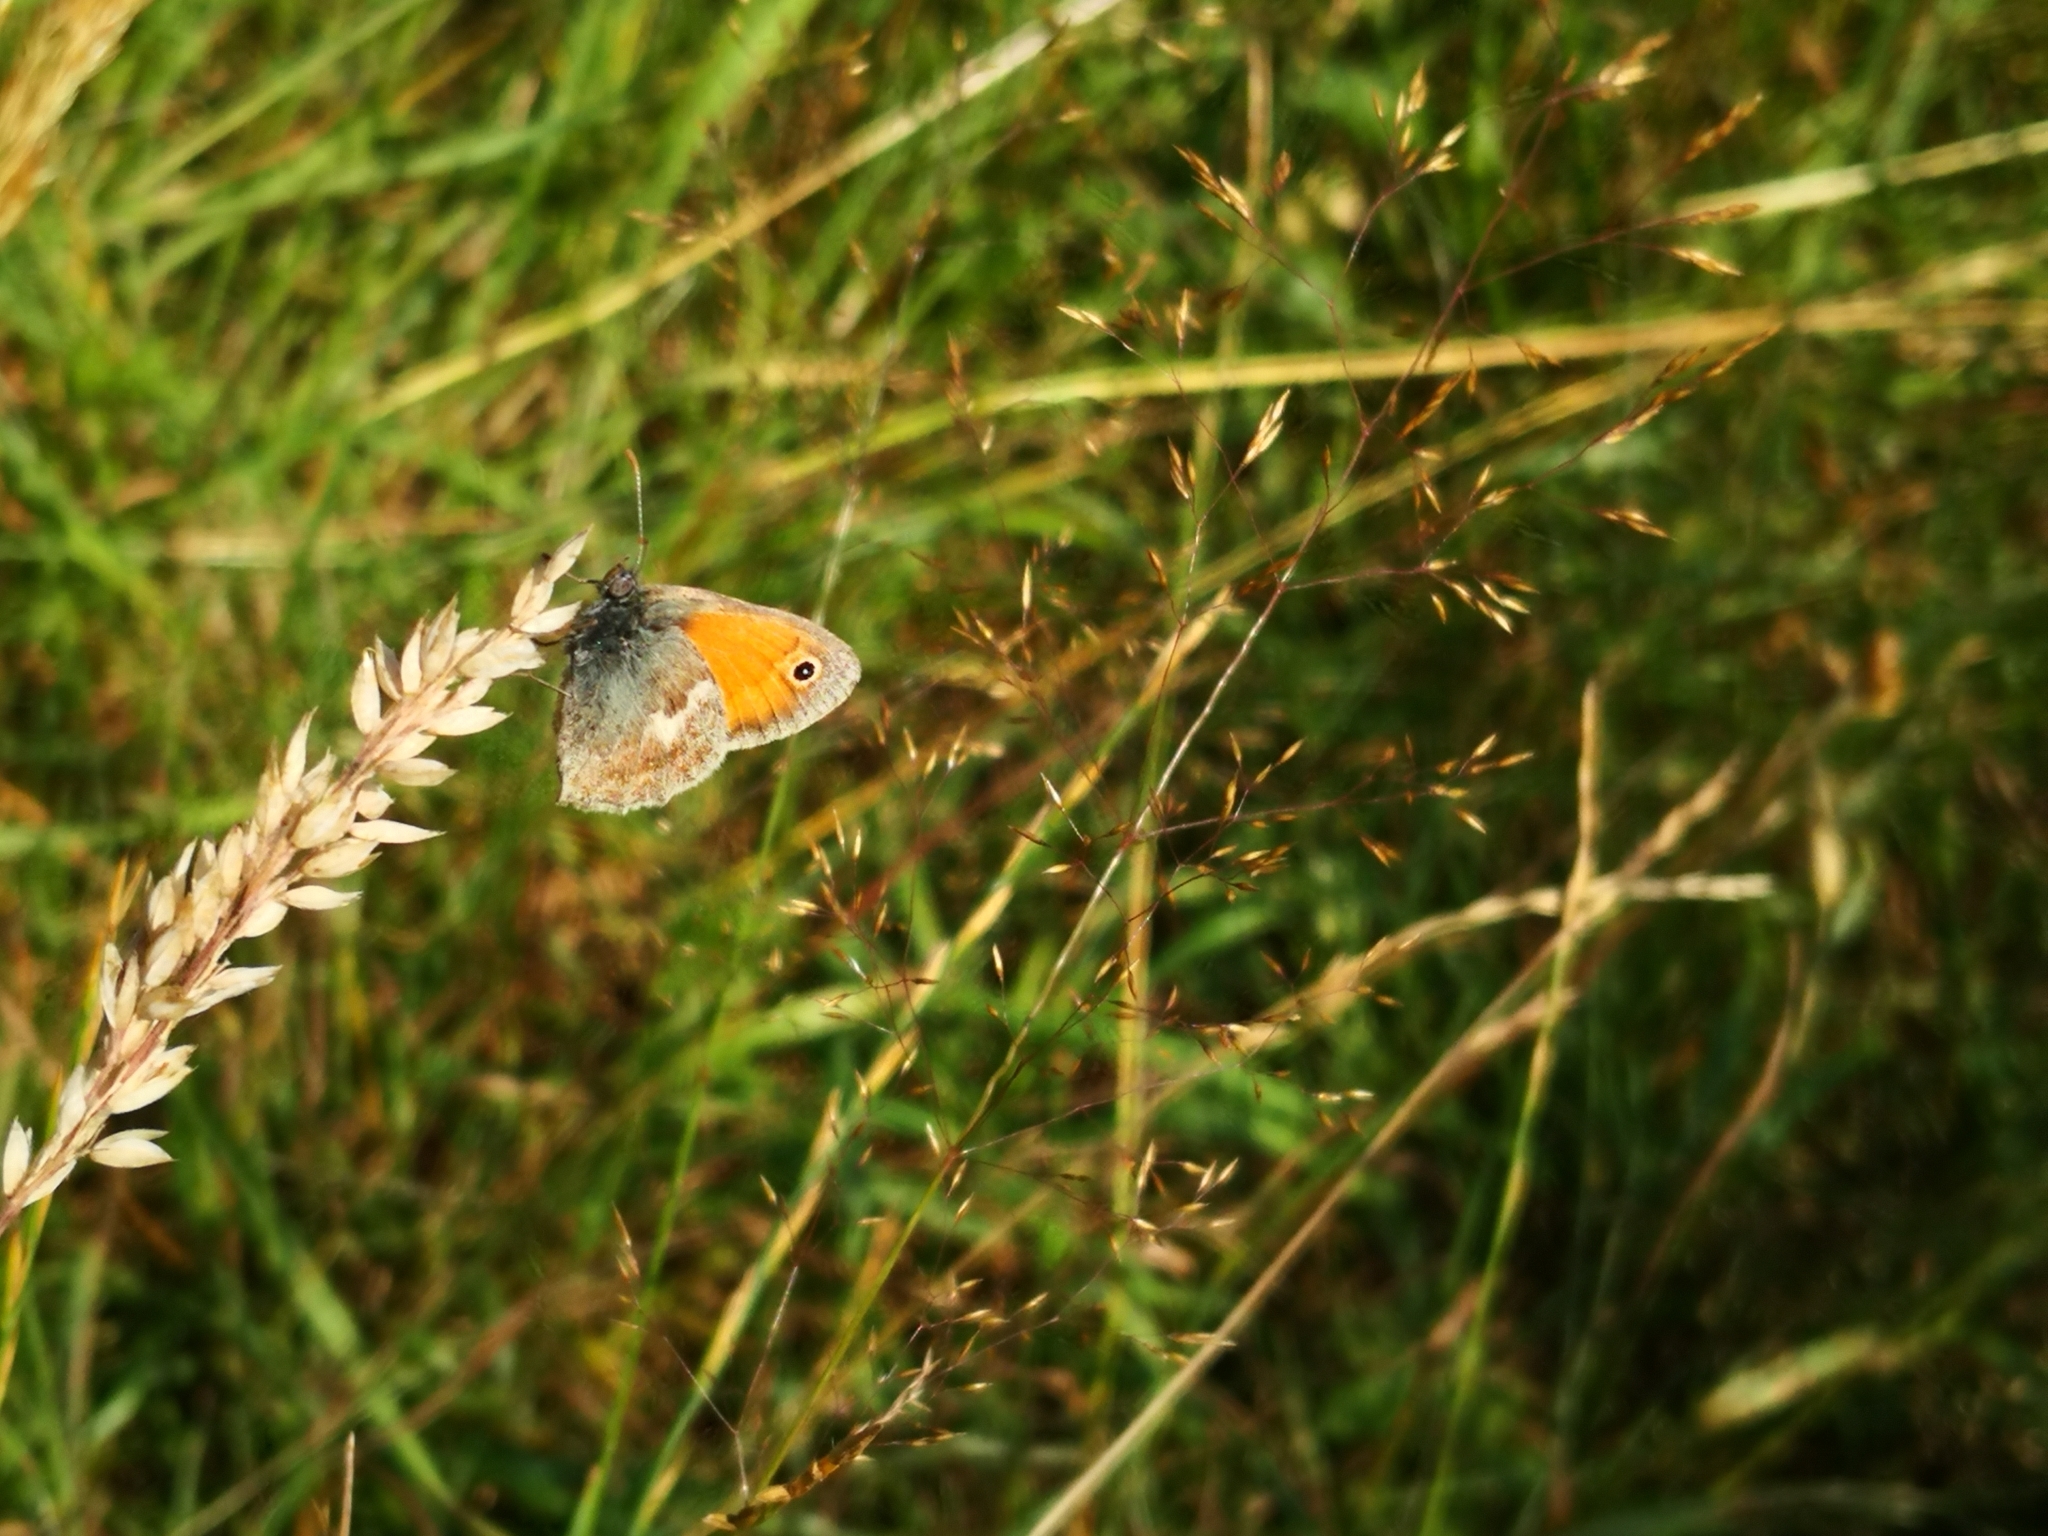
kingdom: Animalia
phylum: Arthropoda
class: Insecta
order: Lepidoptera
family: Nymphalidae
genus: Coenonympha
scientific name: Coenonympha pamphilus
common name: Small heath
